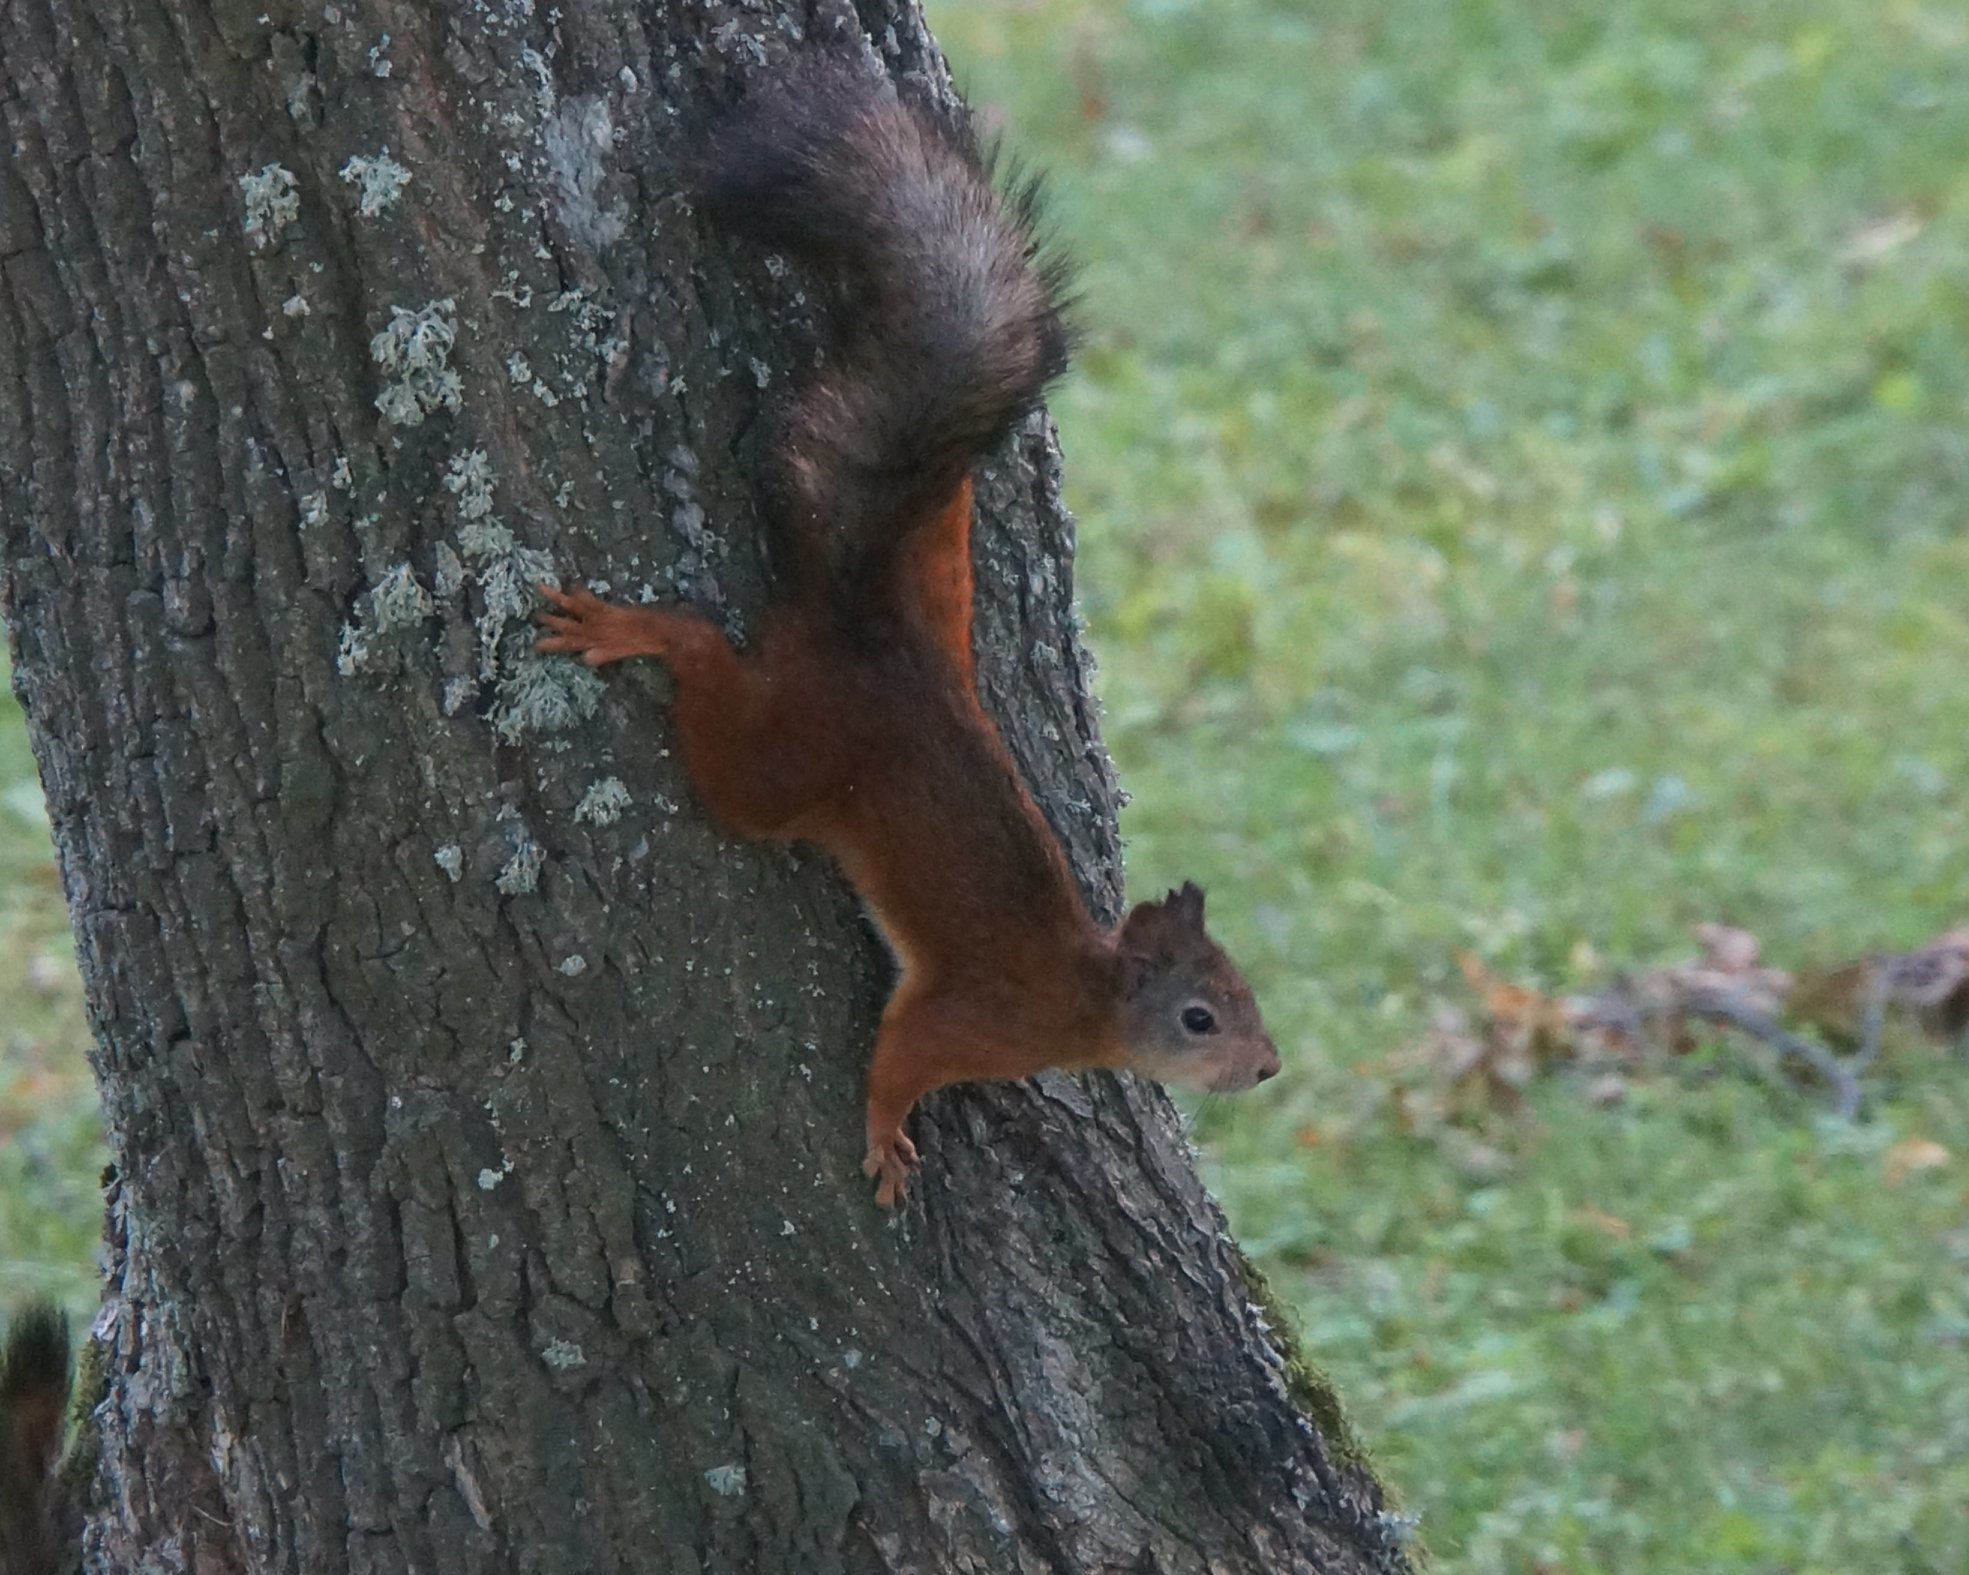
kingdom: Animalia
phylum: Chordata
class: Mammalia
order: Rodentia
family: Sciuridae
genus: Sciurus
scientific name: Sciurus vulgaris
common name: Eurasian red squirrel
